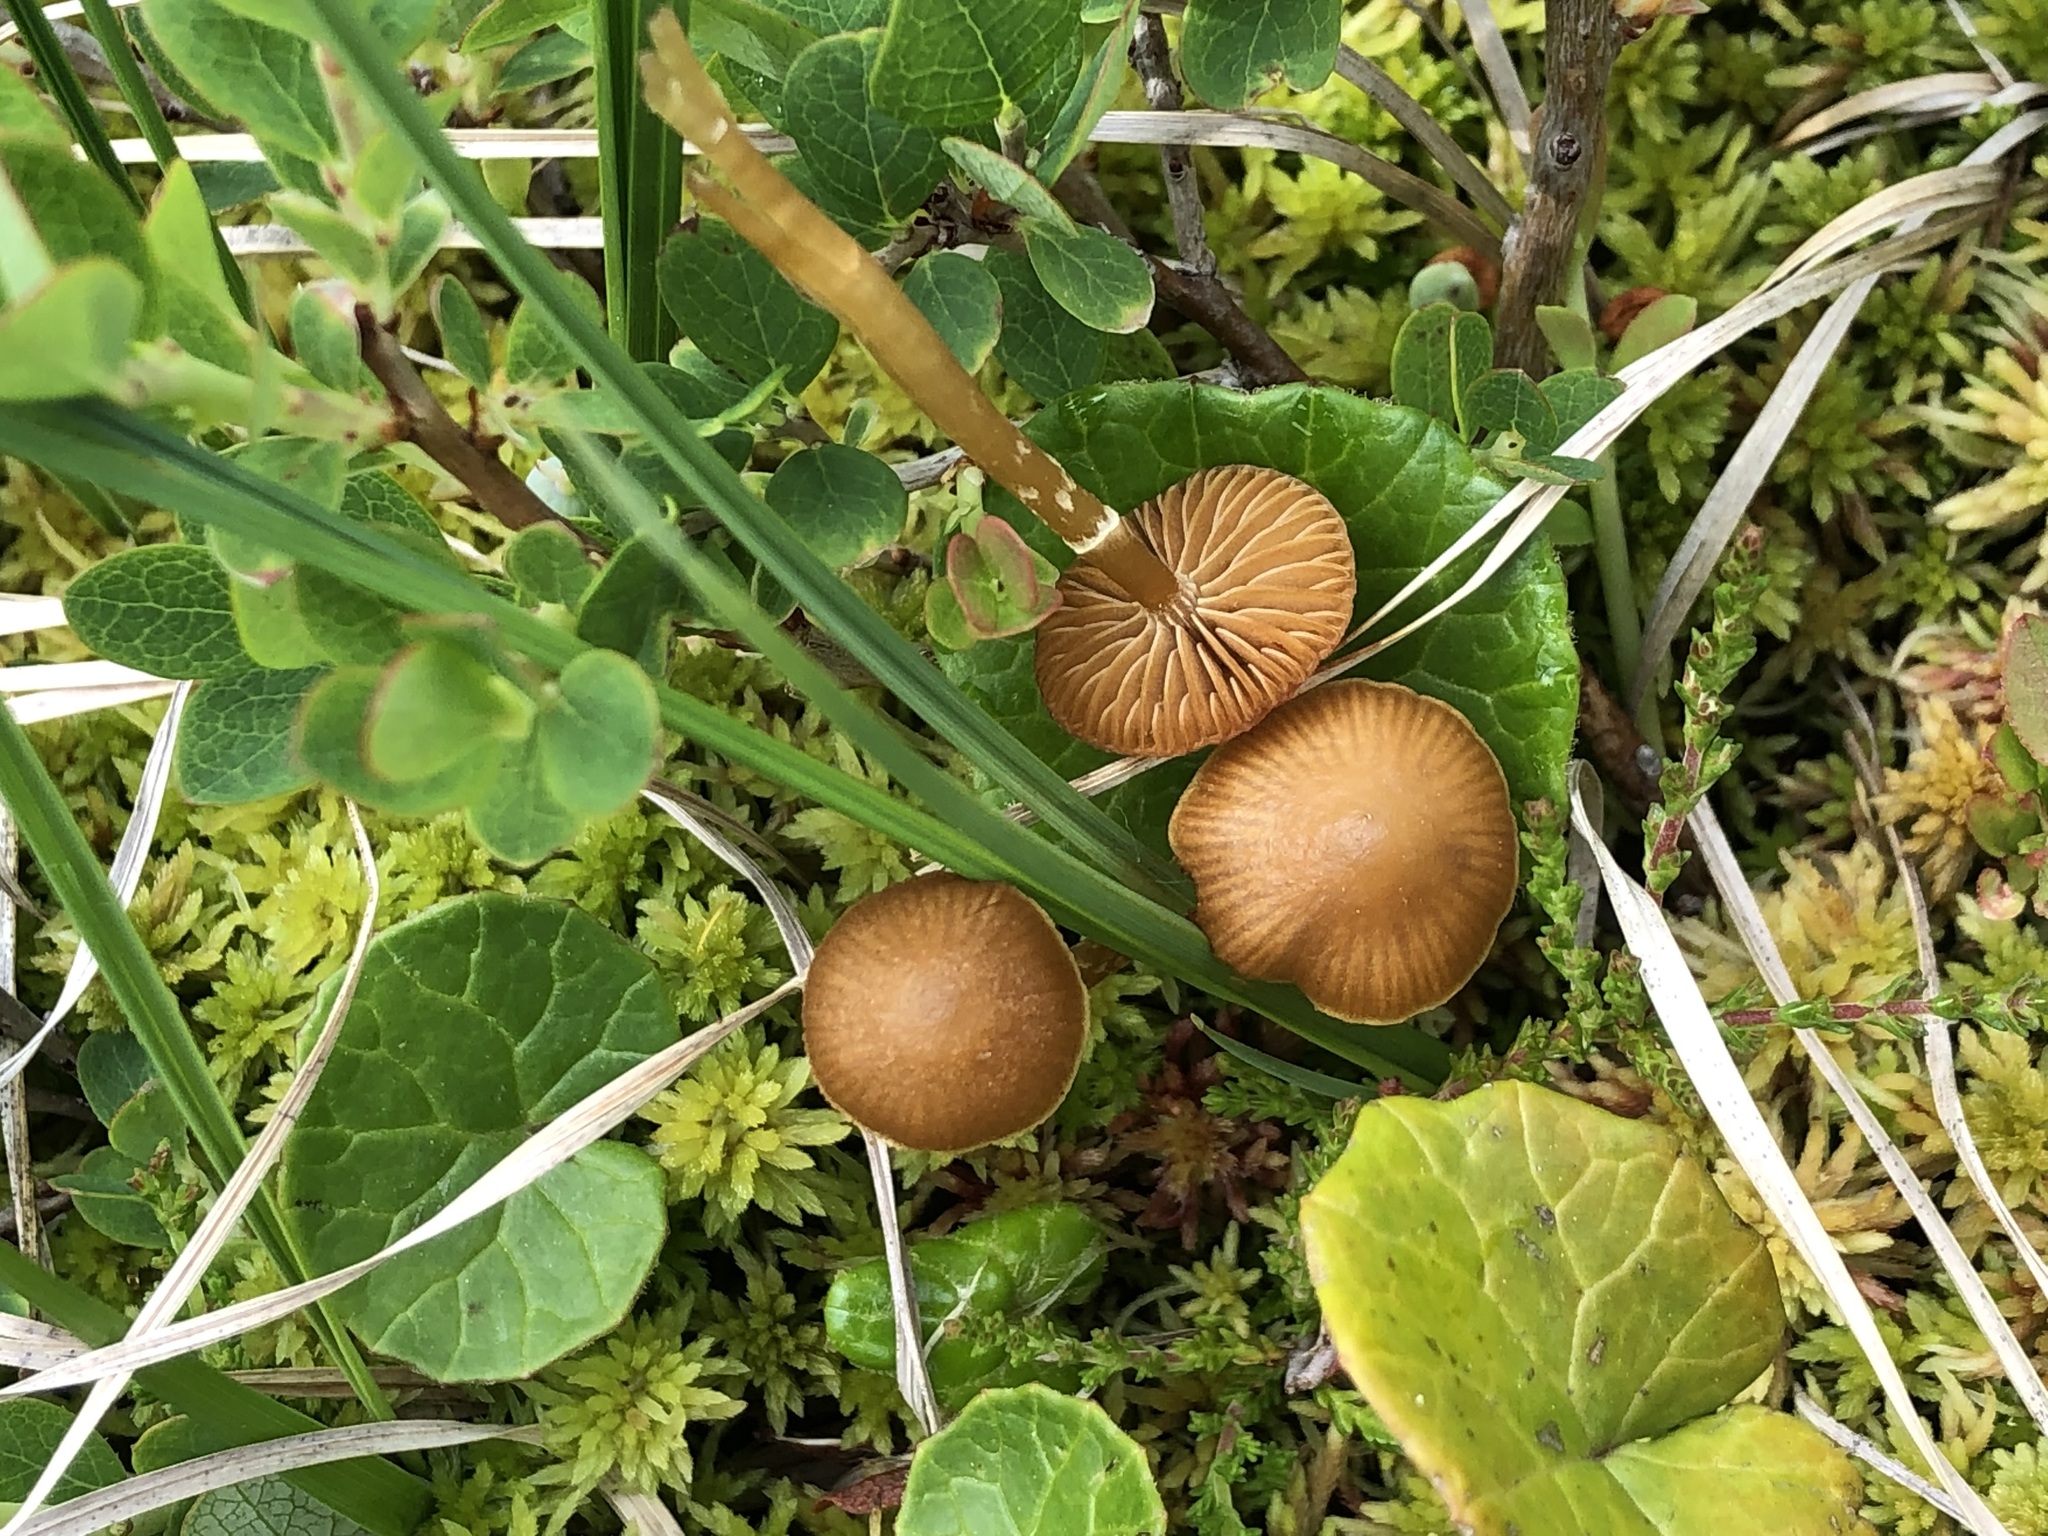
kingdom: Fungi
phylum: Basidiomycota
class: Agaricomycetes
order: Agaricales
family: Hymenogastraceae
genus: Galerina
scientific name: Galerina paludosa
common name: Bog bell
